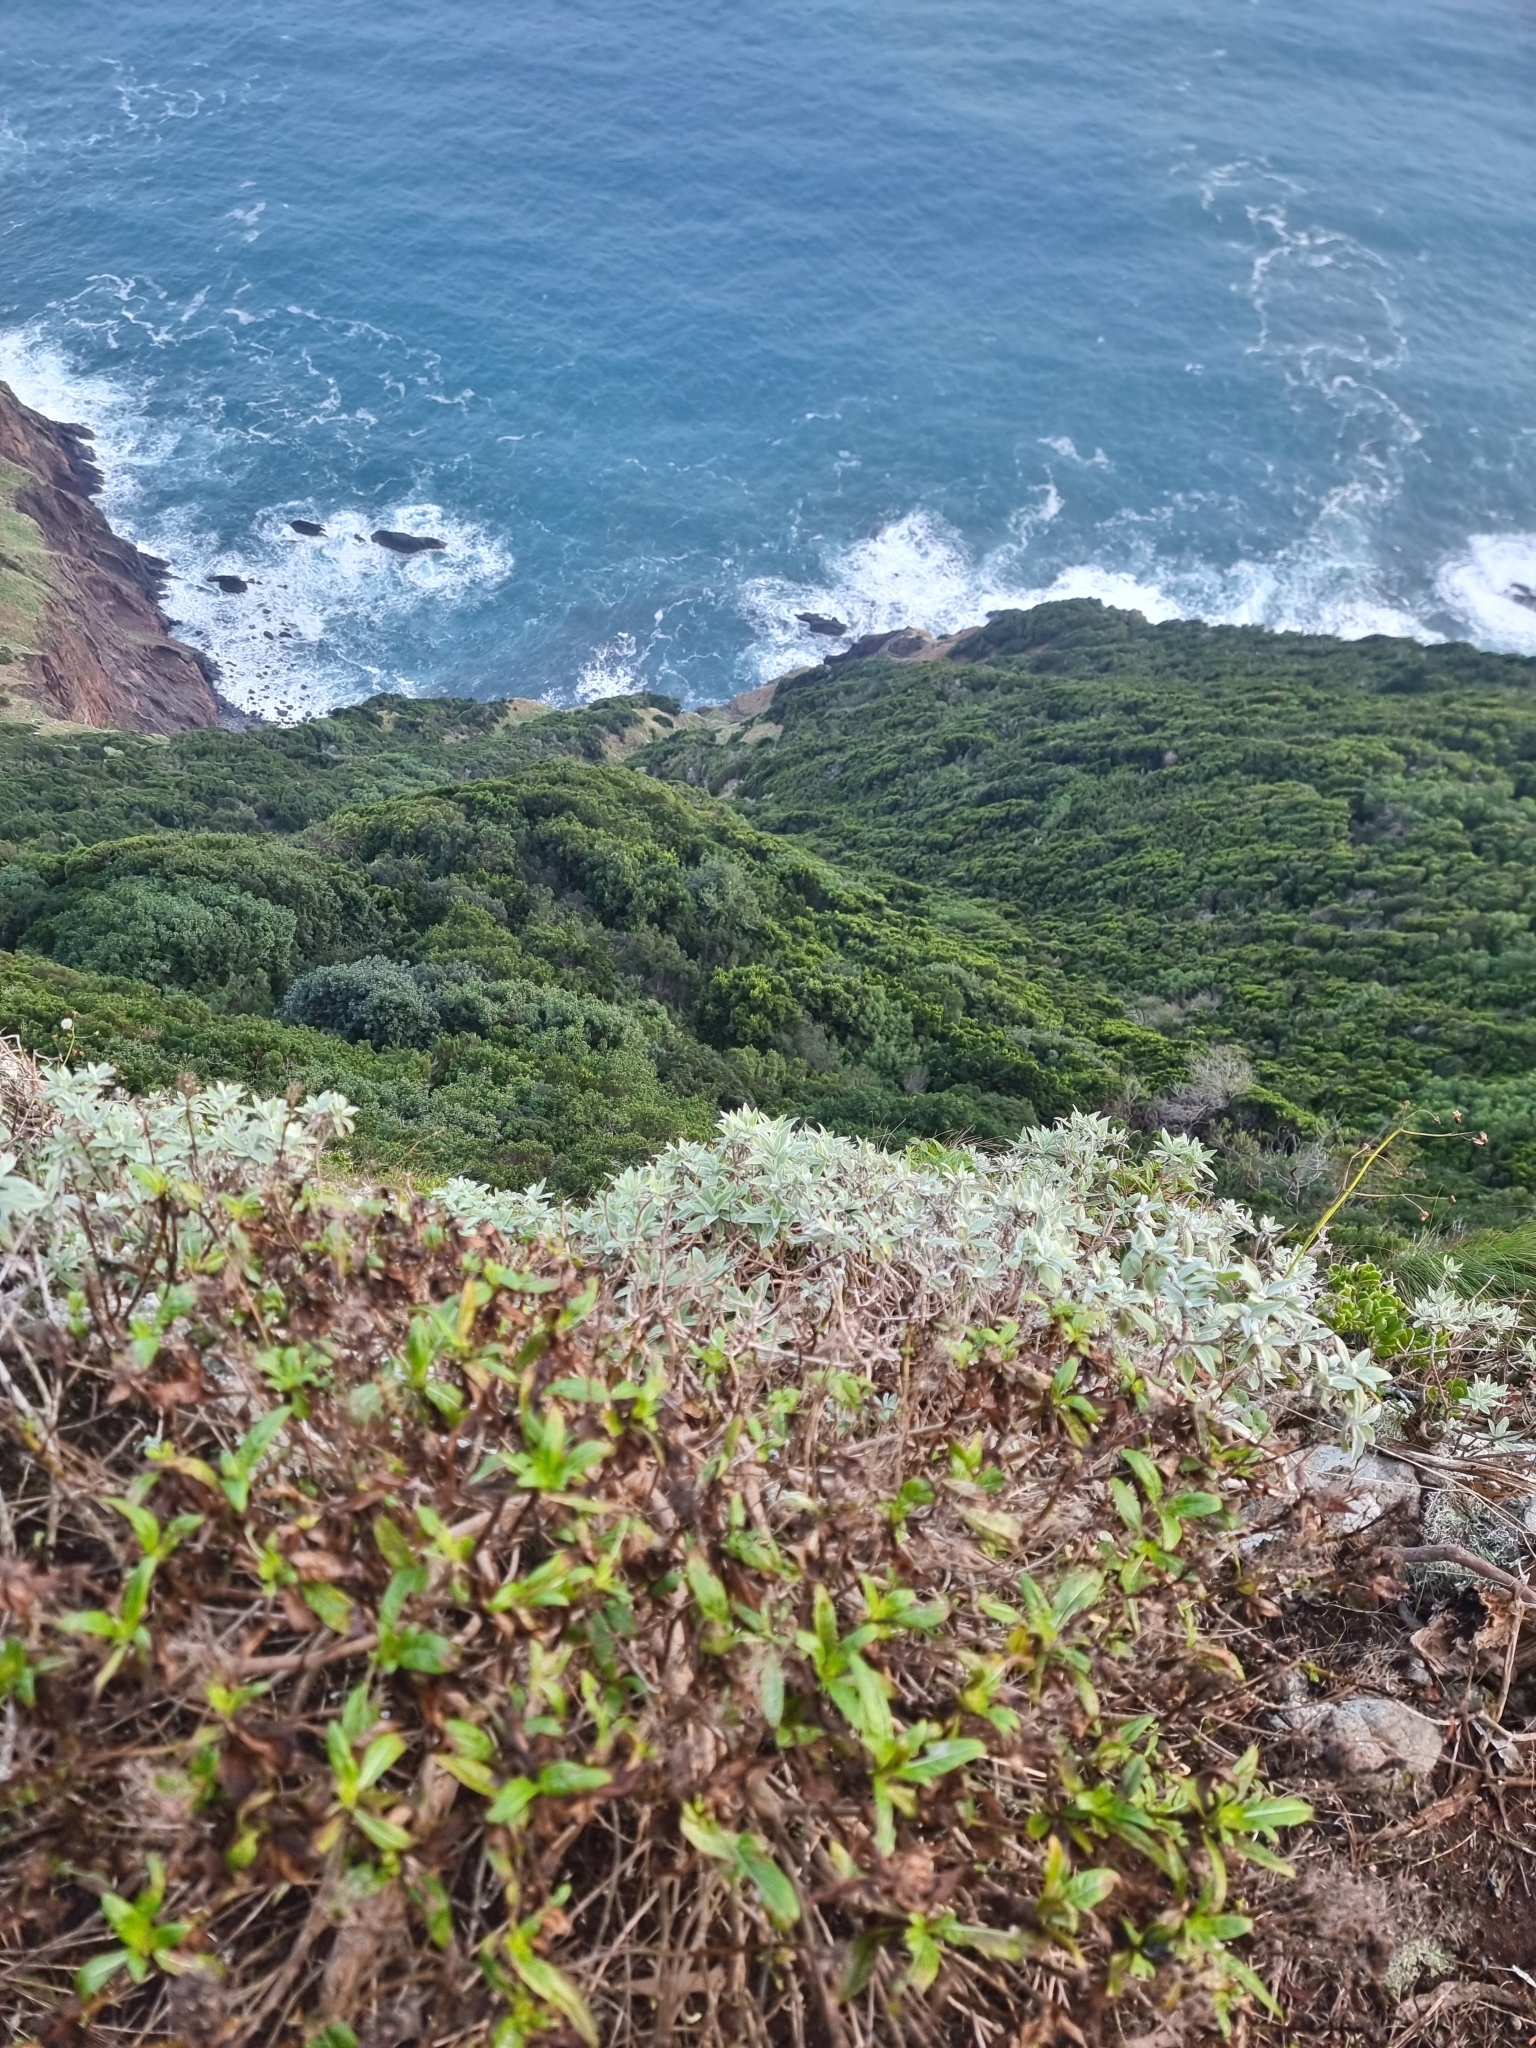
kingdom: Plantae
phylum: Tracheophyta
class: Magnoliopsida
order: Asterales
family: Asteraceae
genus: Helichrysum
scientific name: Helichrysum melaleucum
